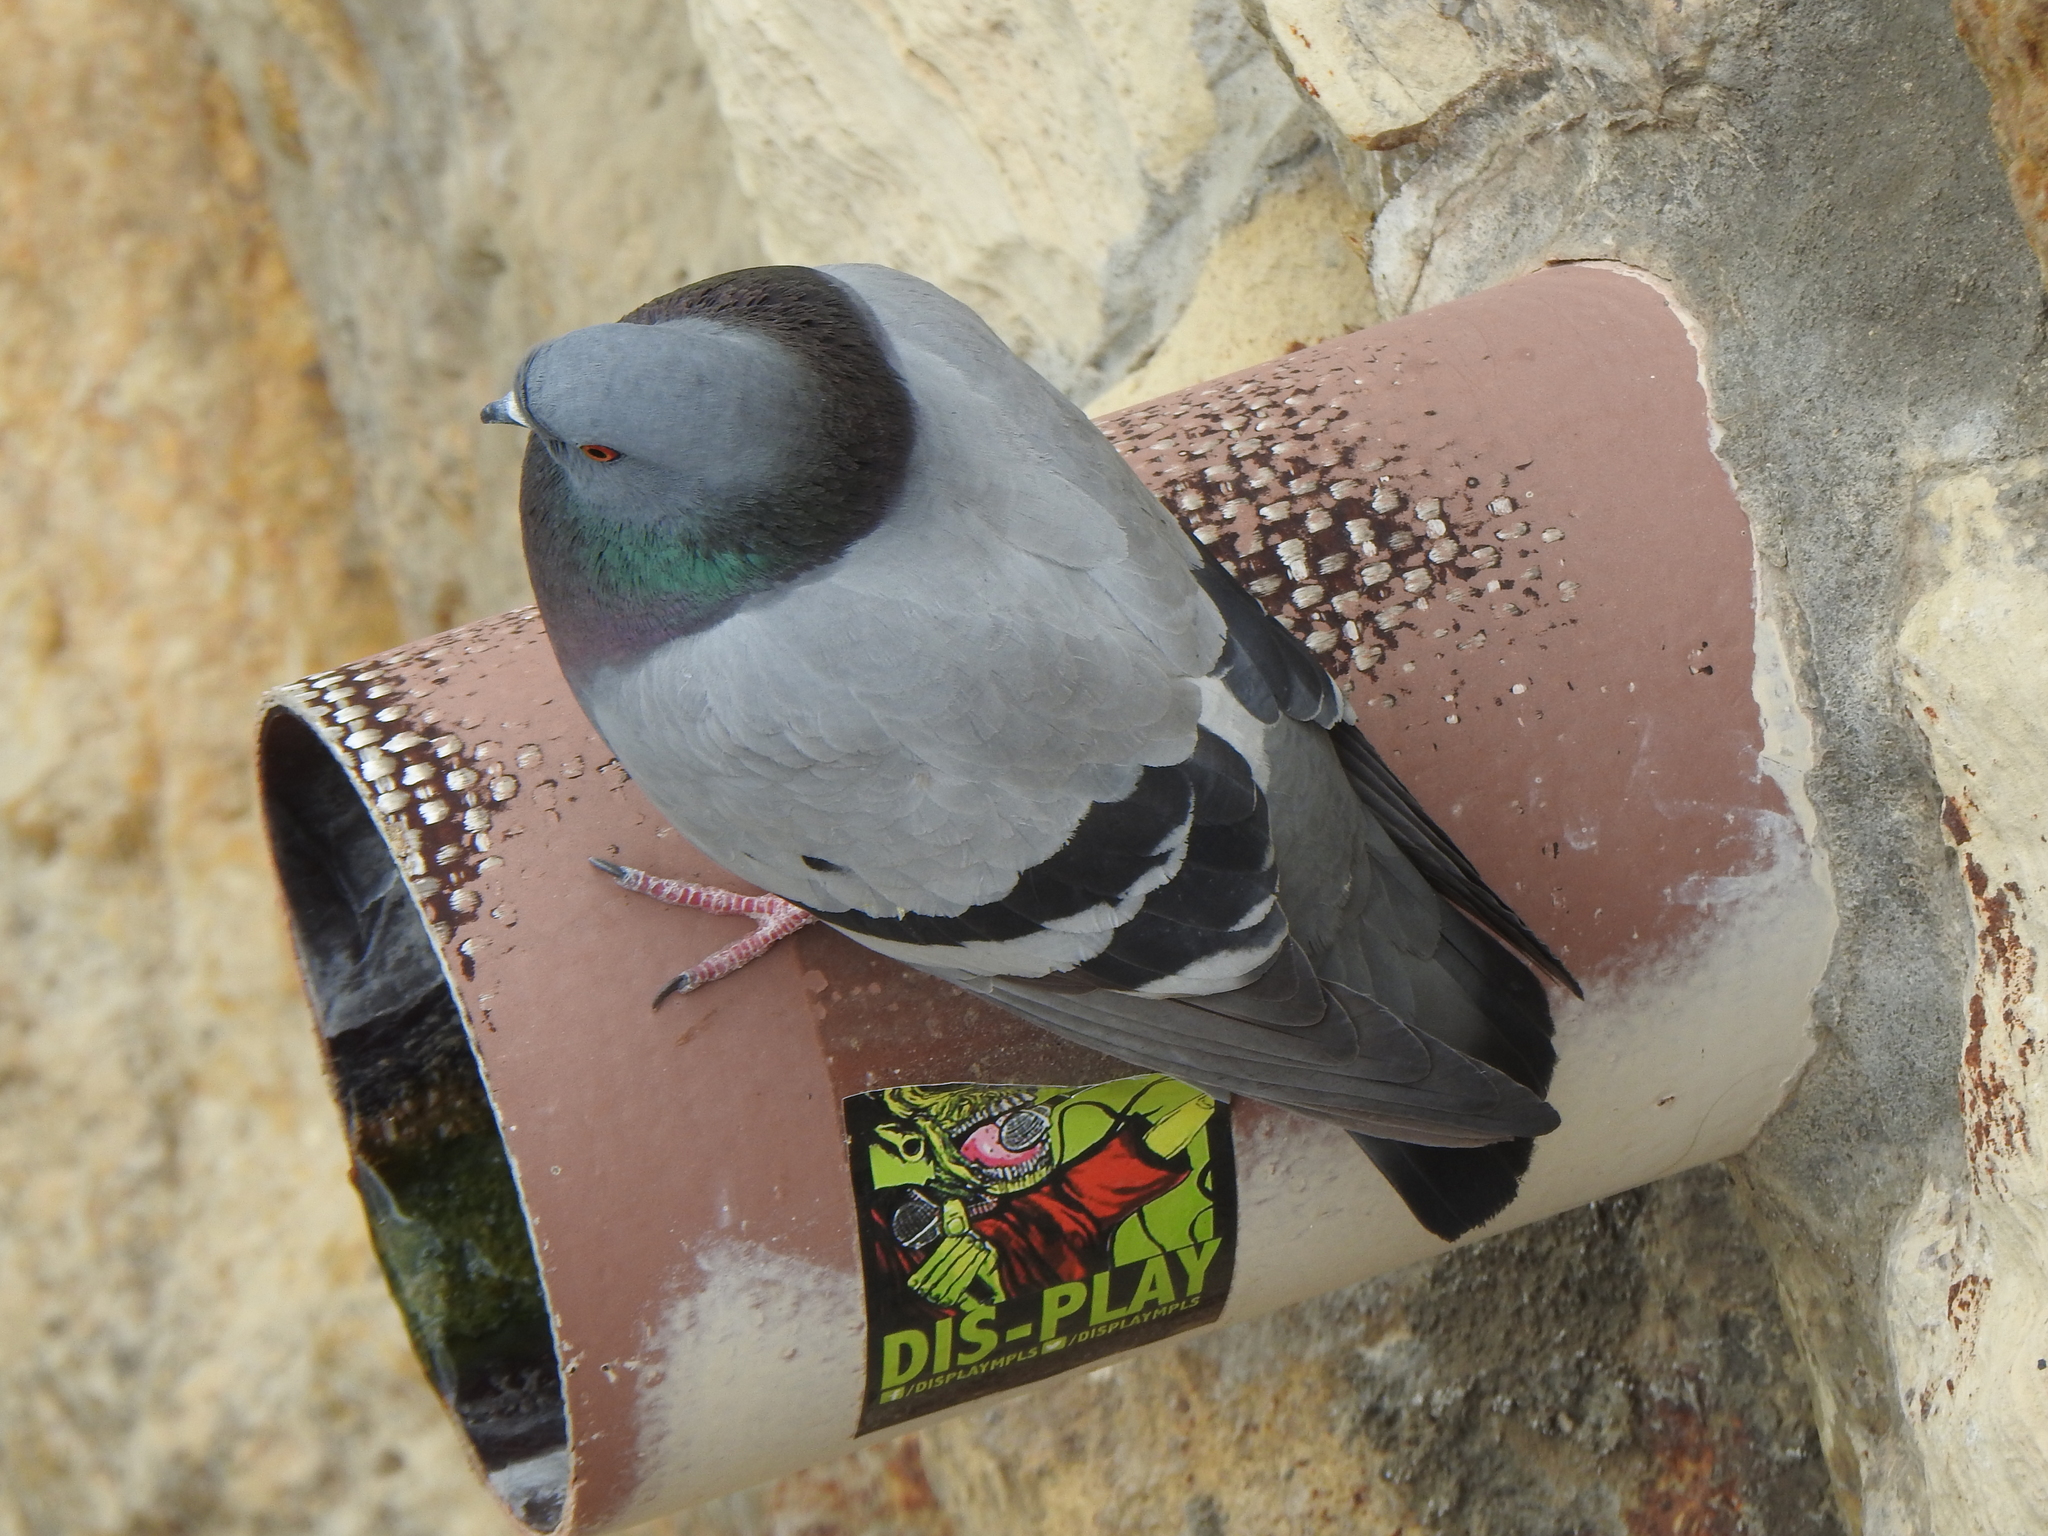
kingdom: Animalia
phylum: Chordata
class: Aves
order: Columbiformes
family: Columbidae
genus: Columba
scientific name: Columba livia
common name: Rock pigeon
